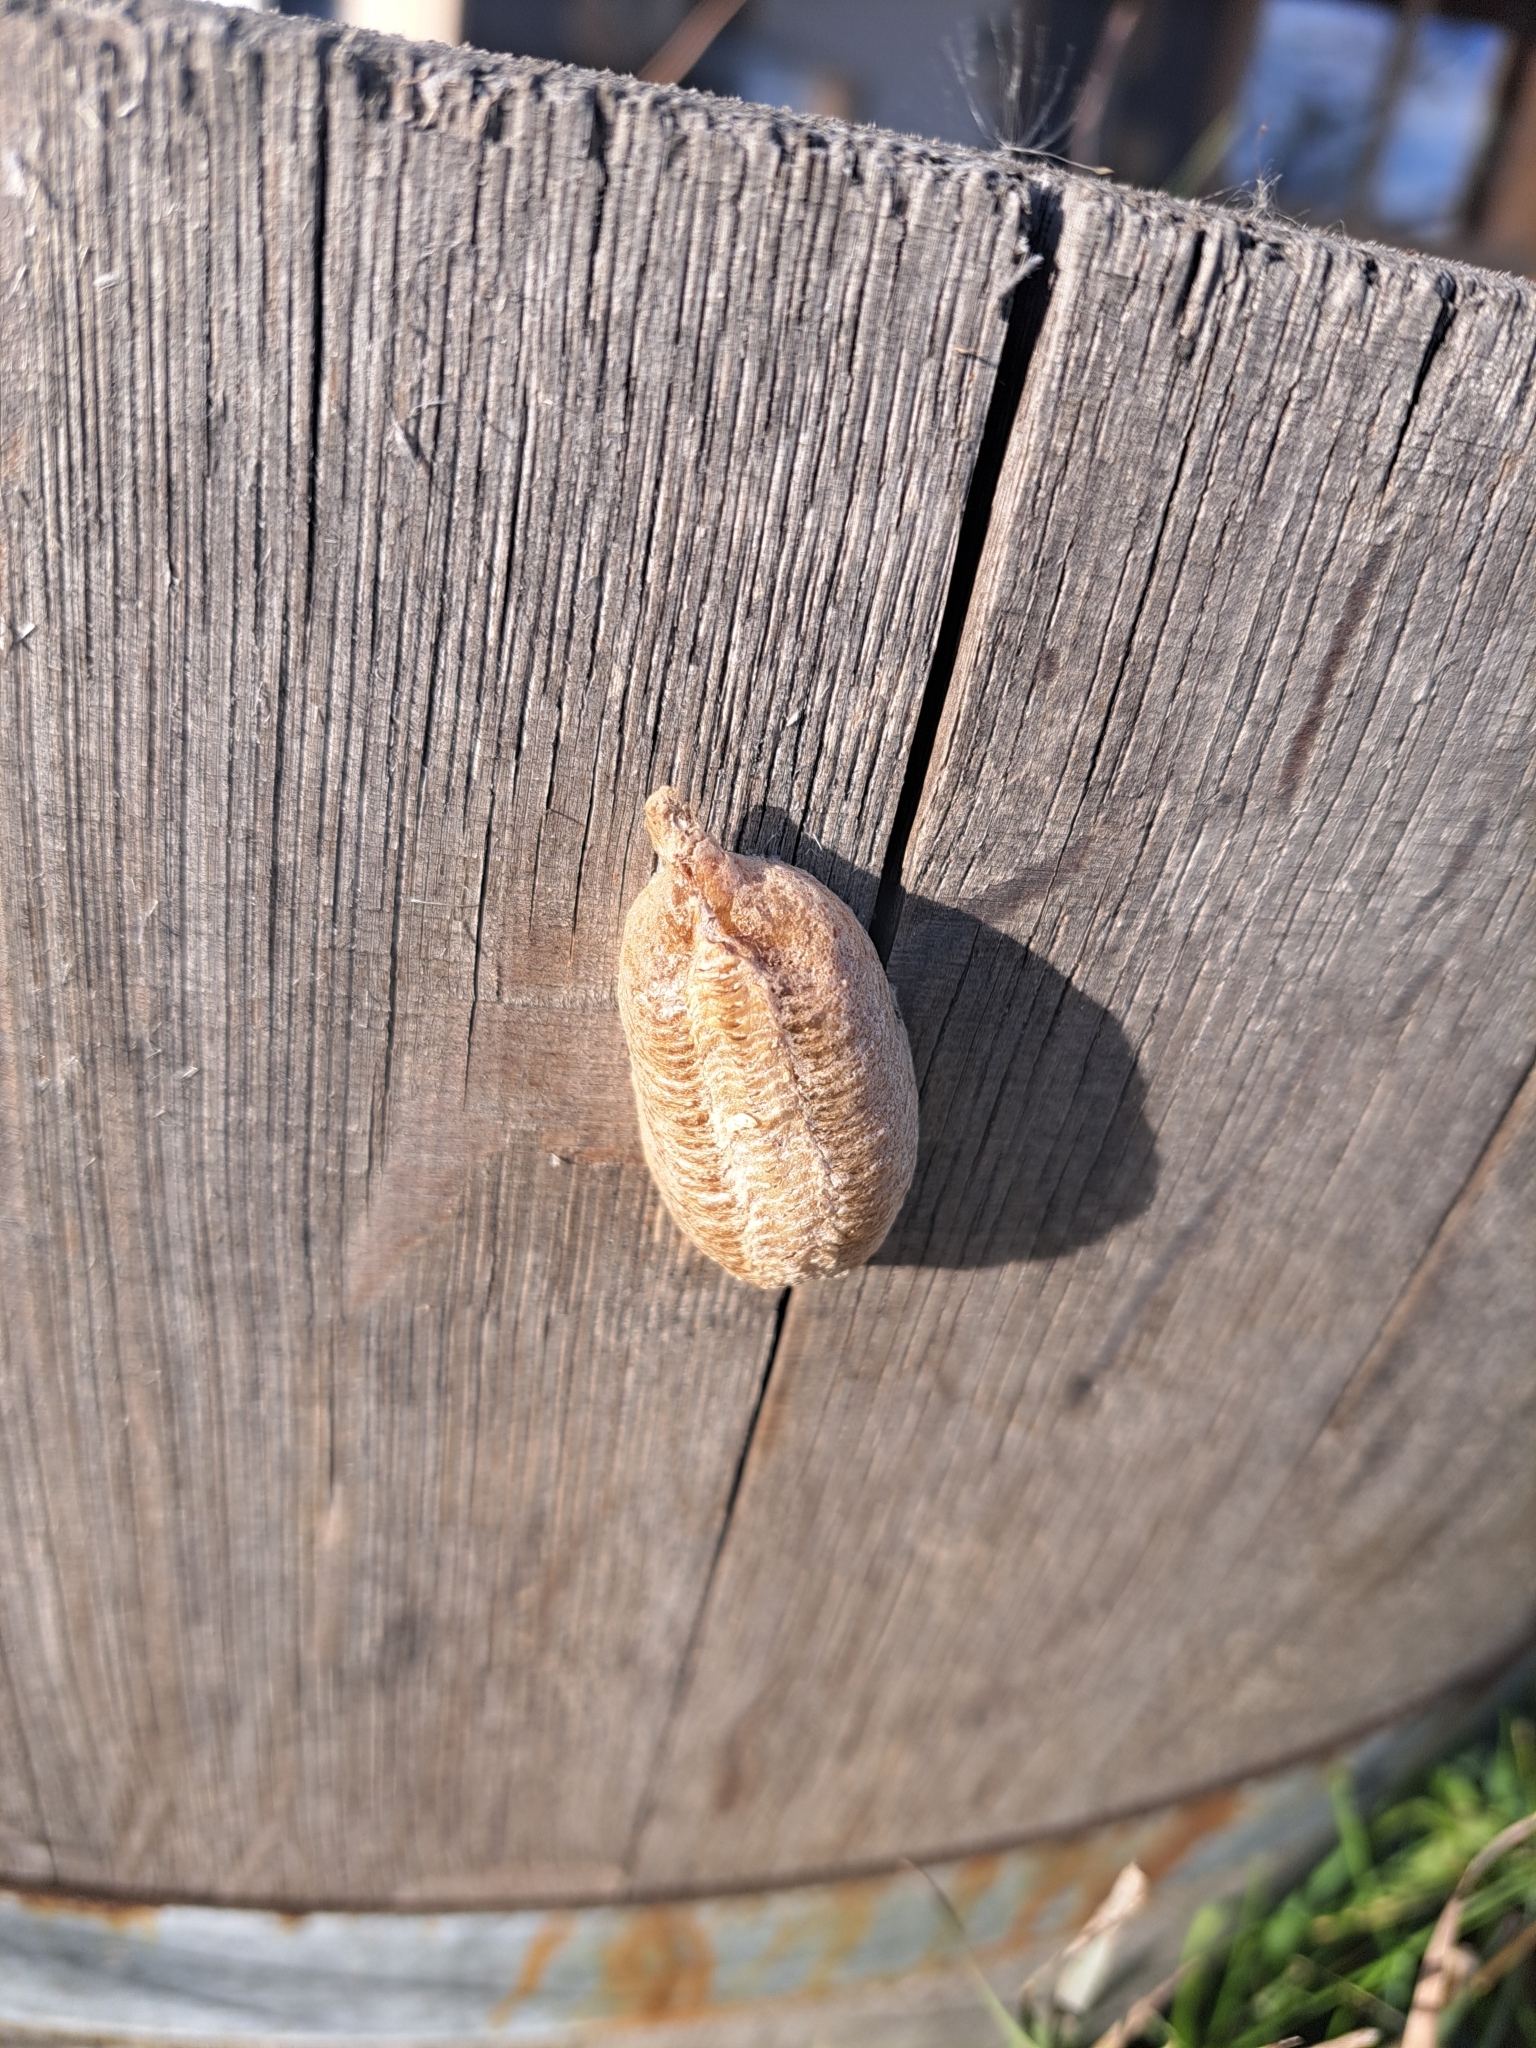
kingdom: Animalia
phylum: Arthropoda
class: Insecta
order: Mantodea
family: Mantidae
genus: Mantis
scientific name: Mantis religiosa
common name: Praying mantis
